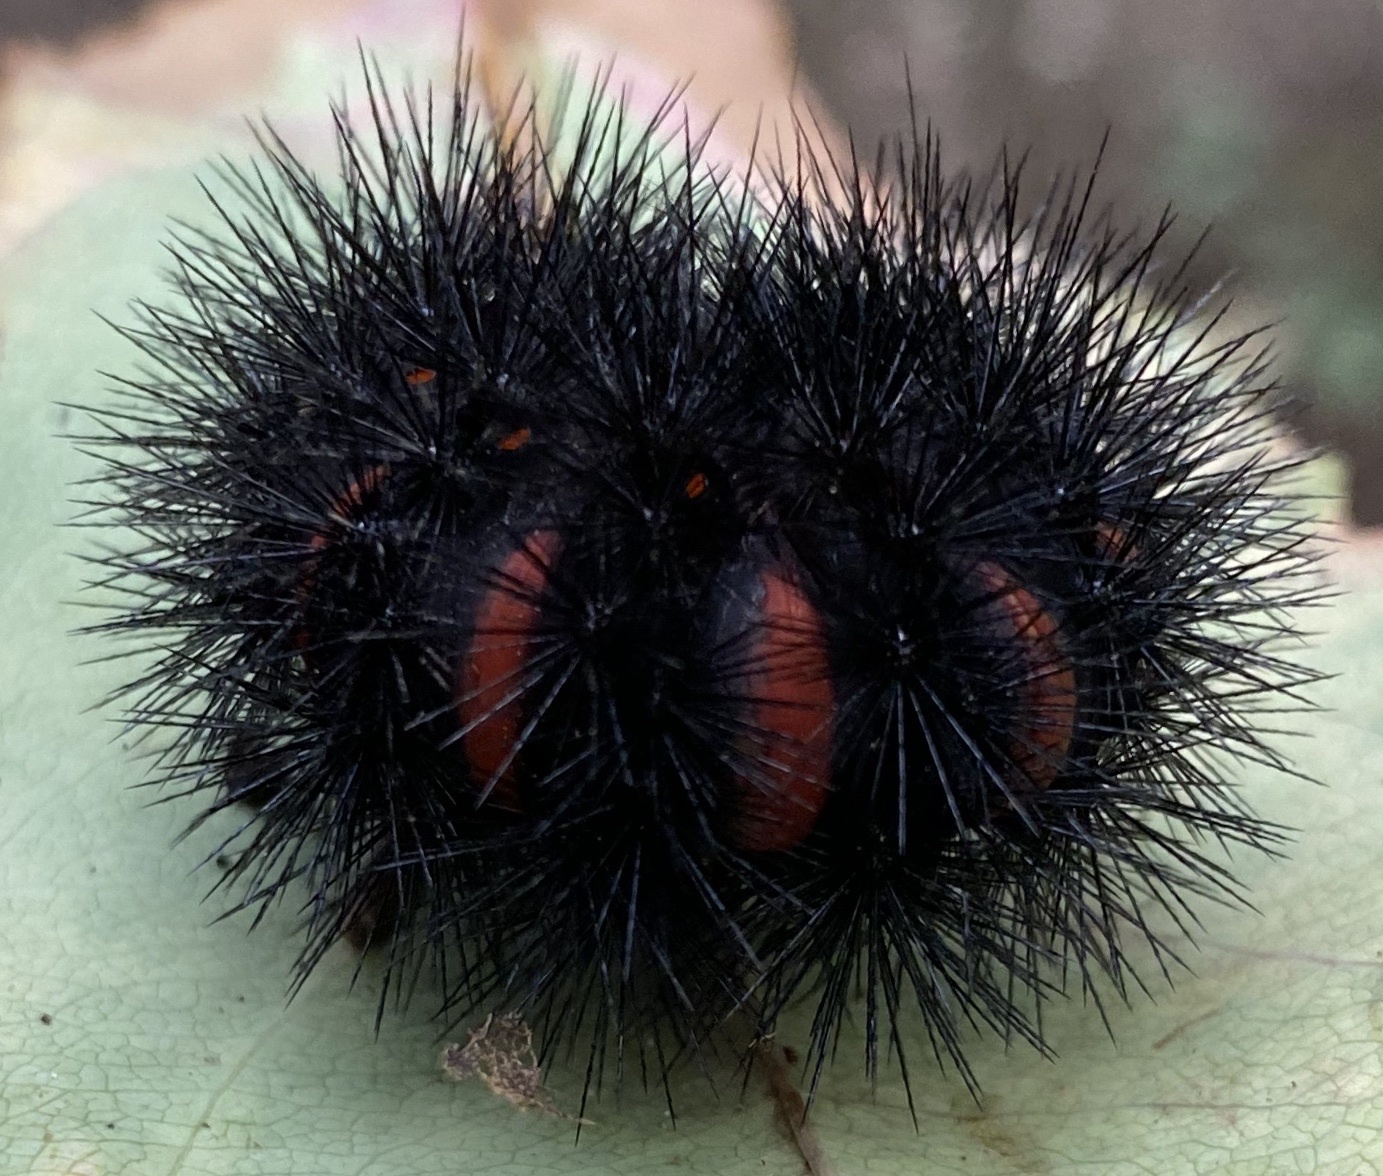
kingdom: Animalia
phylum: Arthropoda
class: Insecta
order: Lepidoptera
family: Erebidae
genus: Hypercompe
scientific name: Hypercompe scribonia
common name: Giant leopard moth
